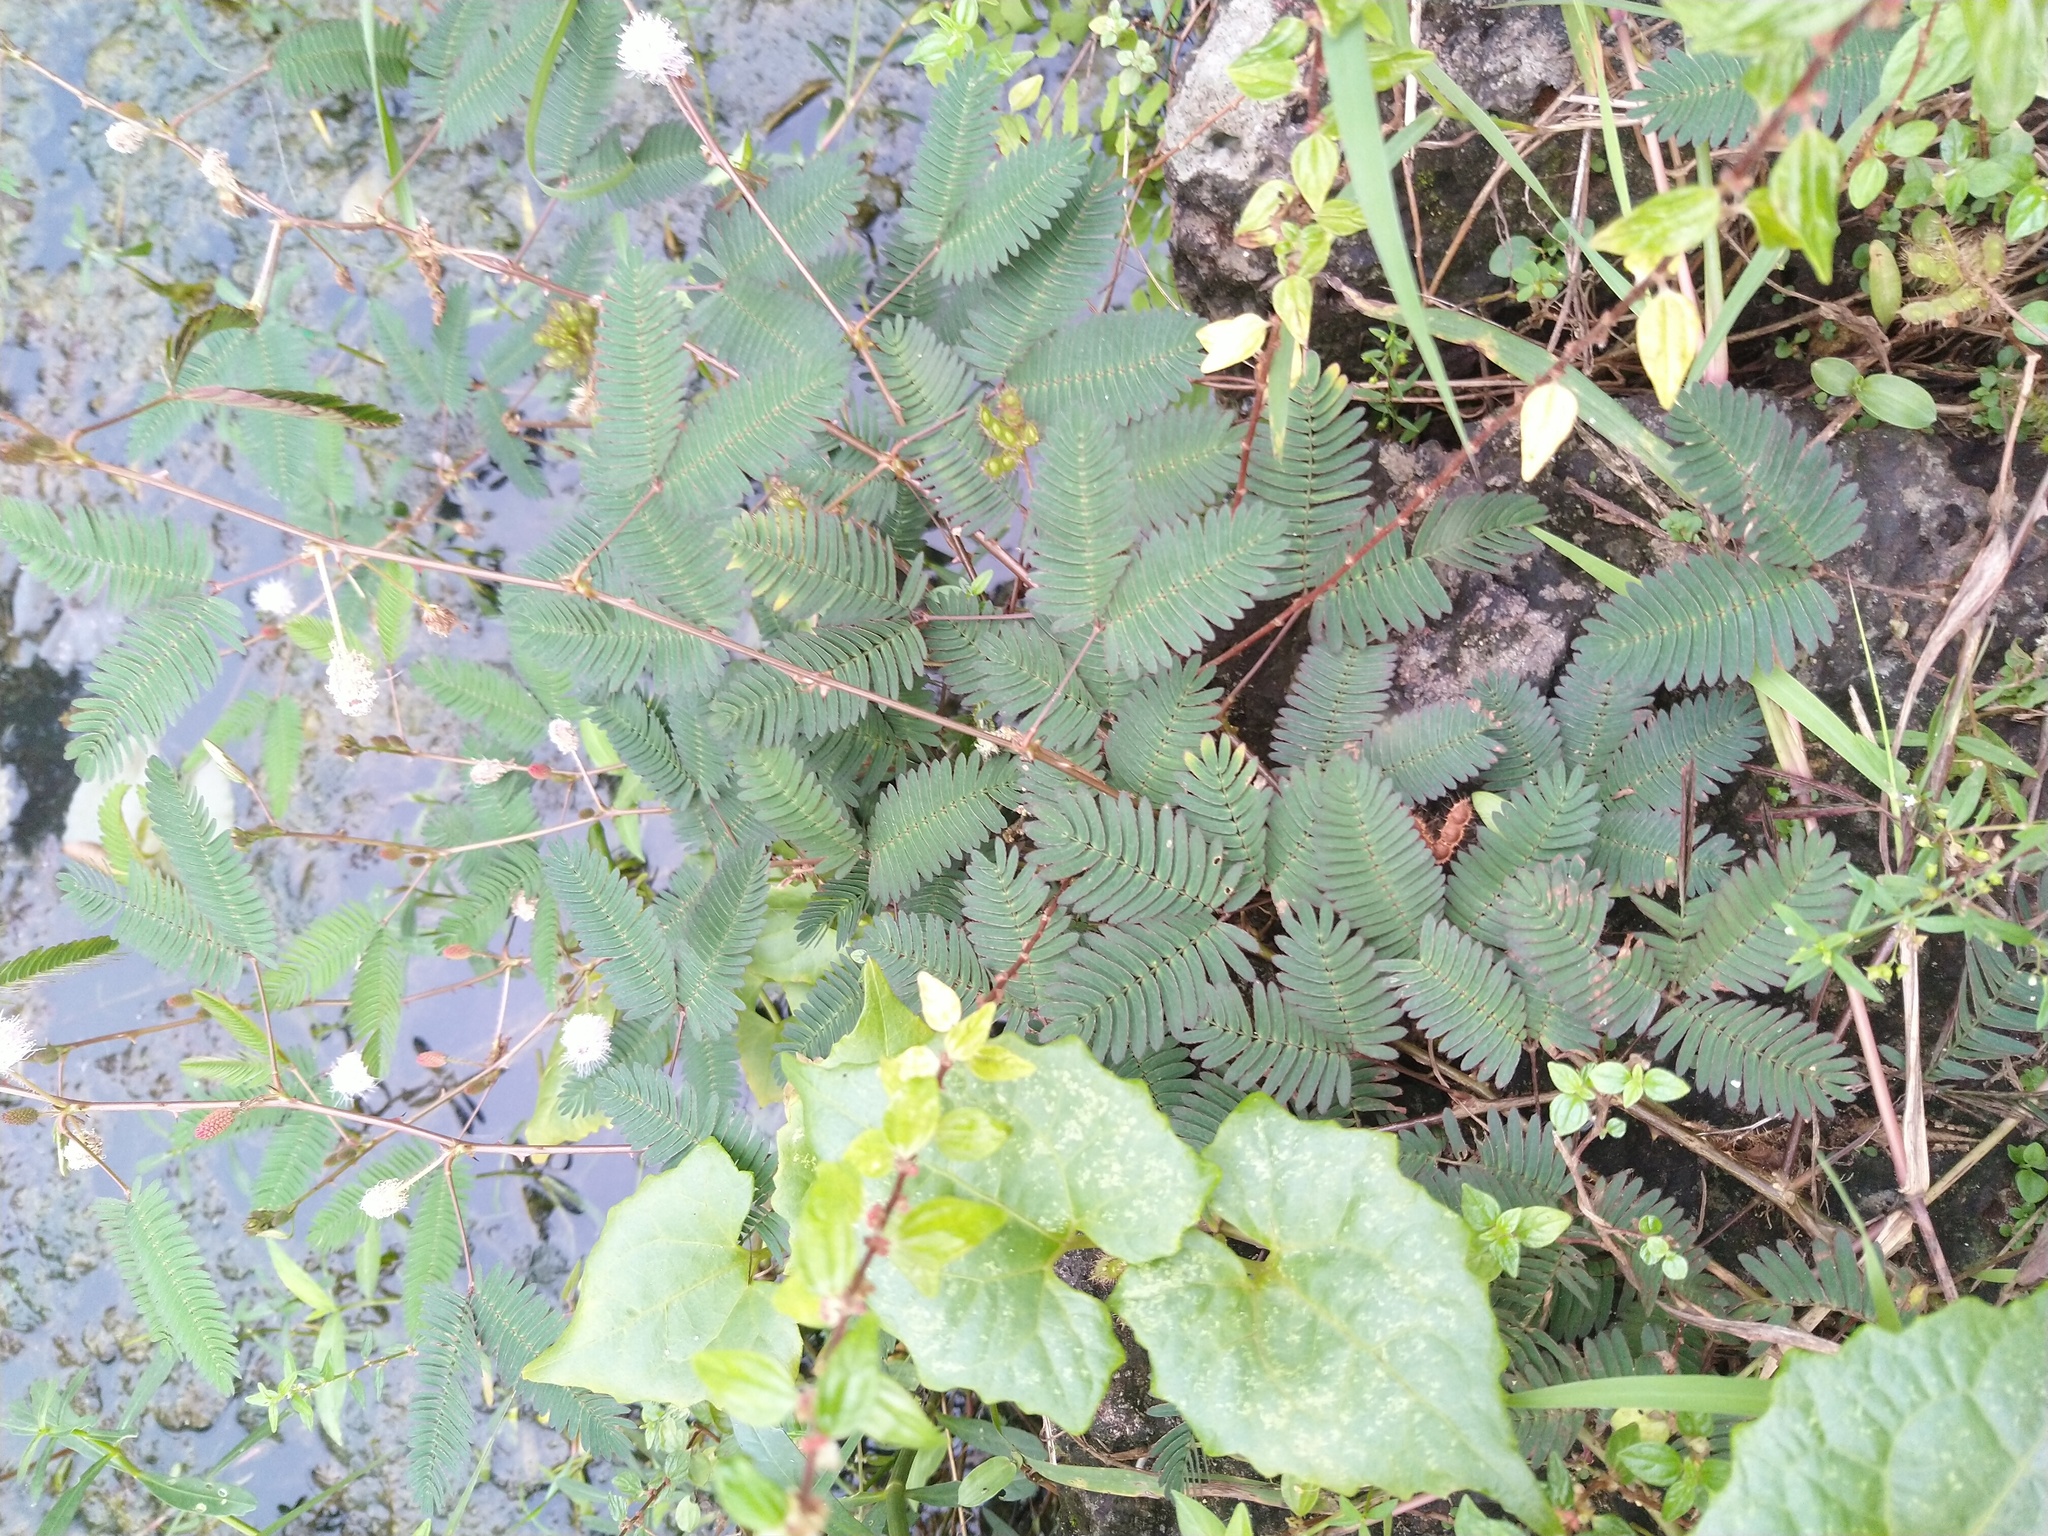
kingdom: Plantae
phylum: Tracheophyta
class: Magnoliopsida
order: Fabales
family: Fabaceae
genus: Mimosa
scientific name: Mimosa pudica
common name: Sensitive plant
